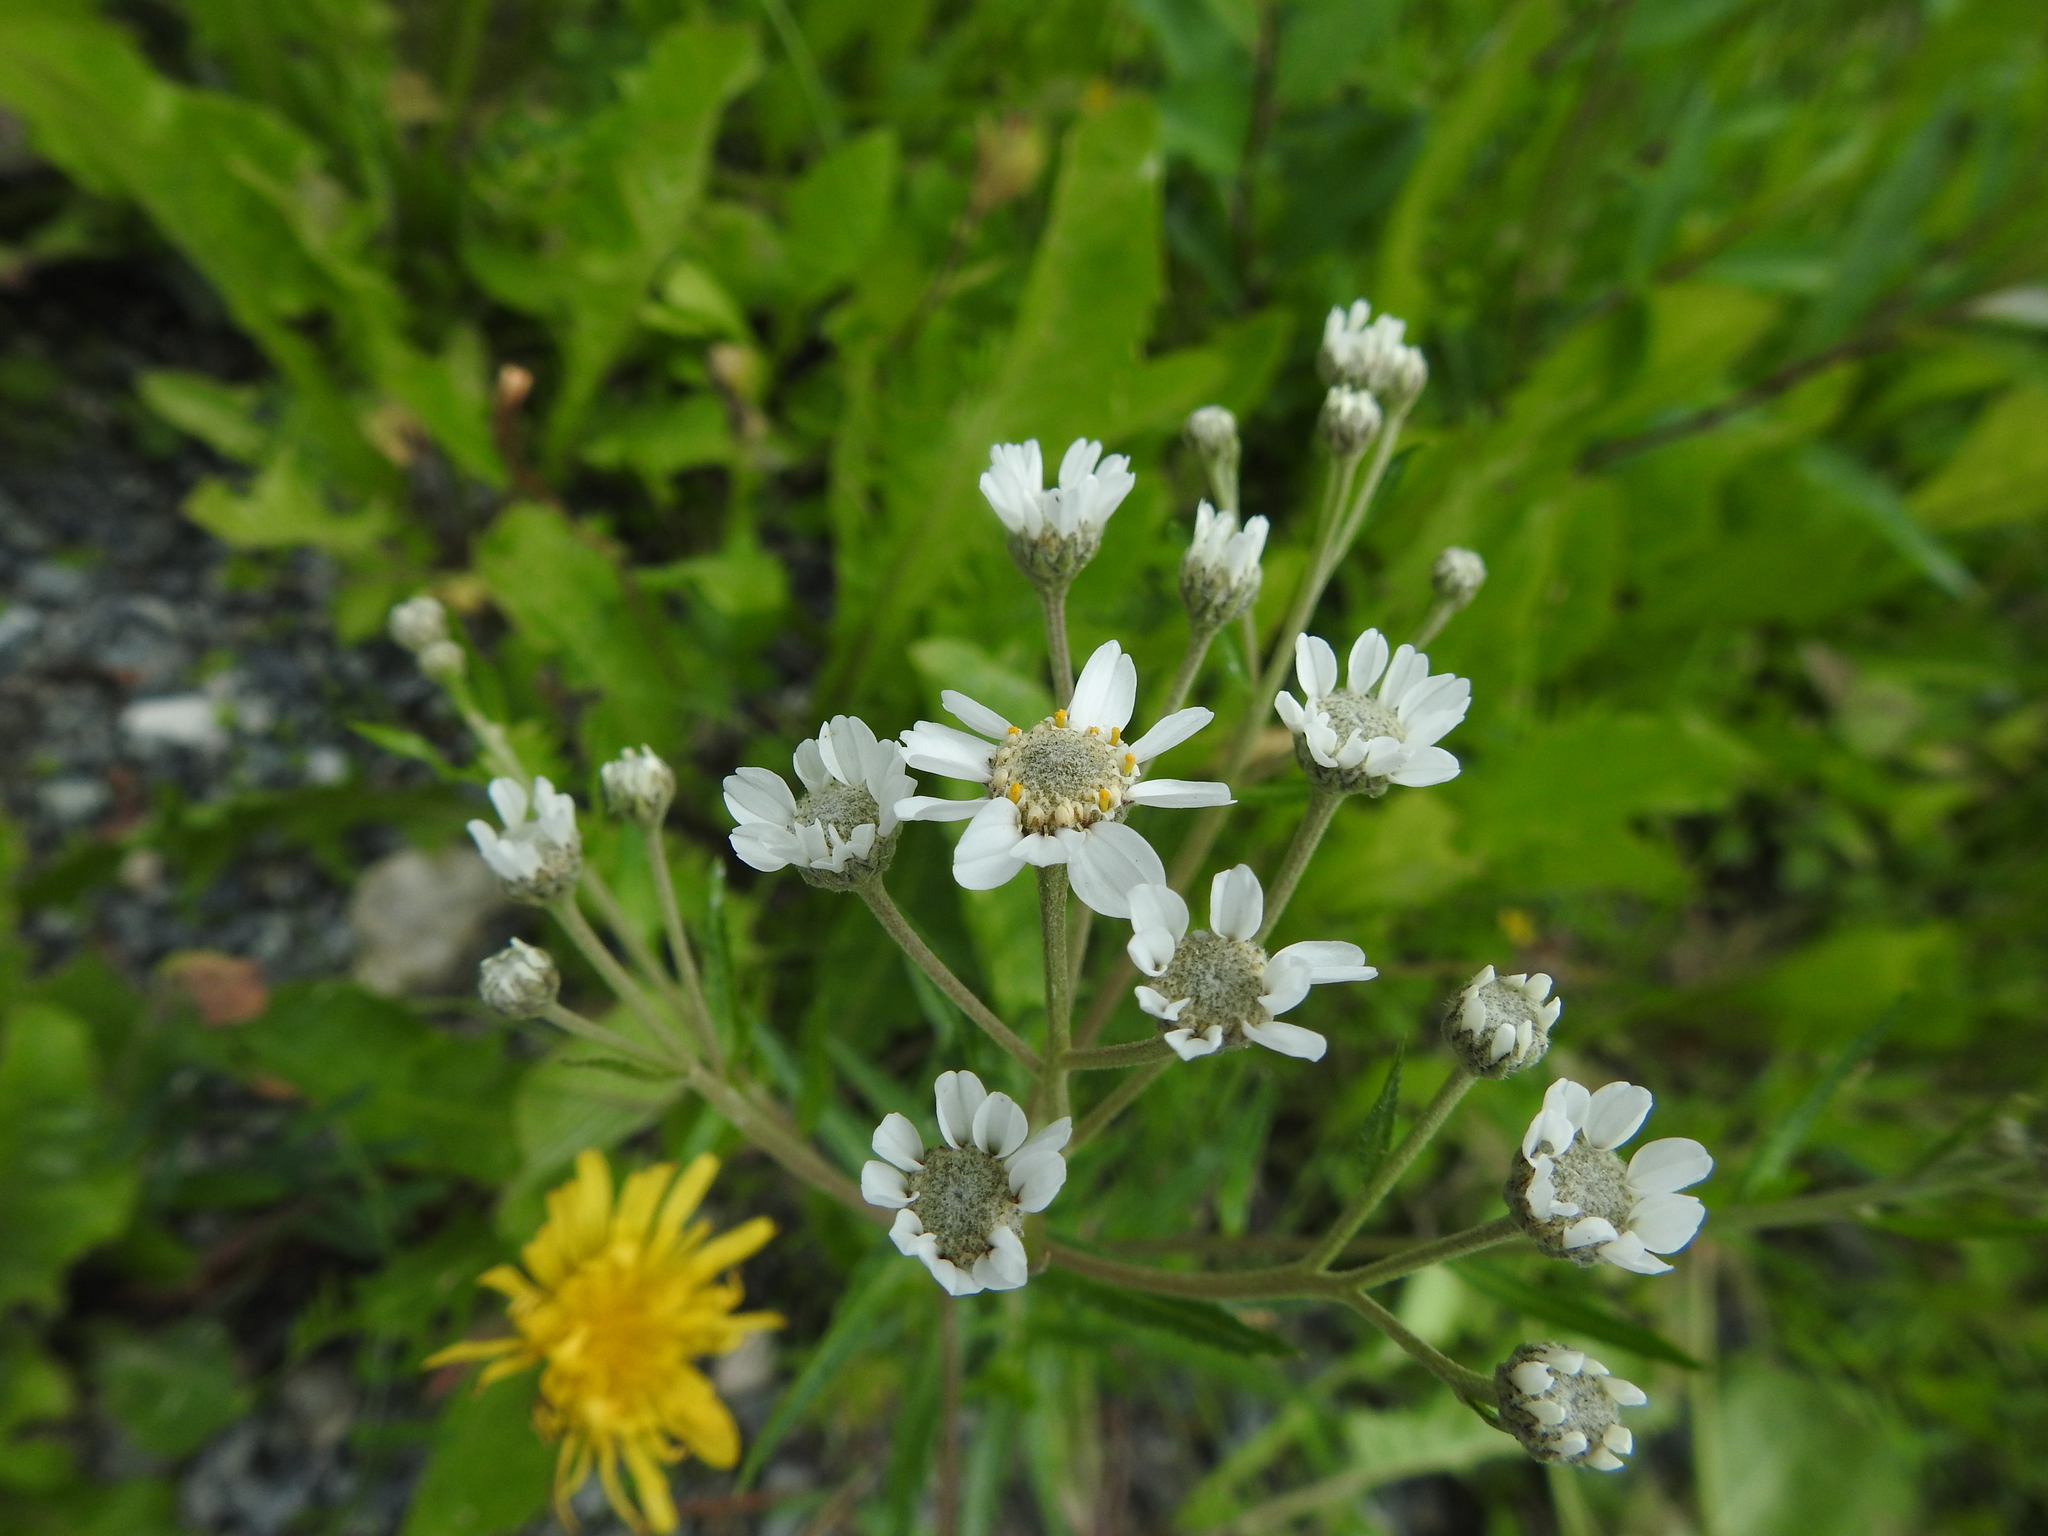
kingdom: Plantae
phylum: Tracheophyta
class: Magnoliopsida
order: Asterales
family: Asteraceae
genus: Achillea
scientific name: Achillea ptarmica
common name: Sneezeweed
